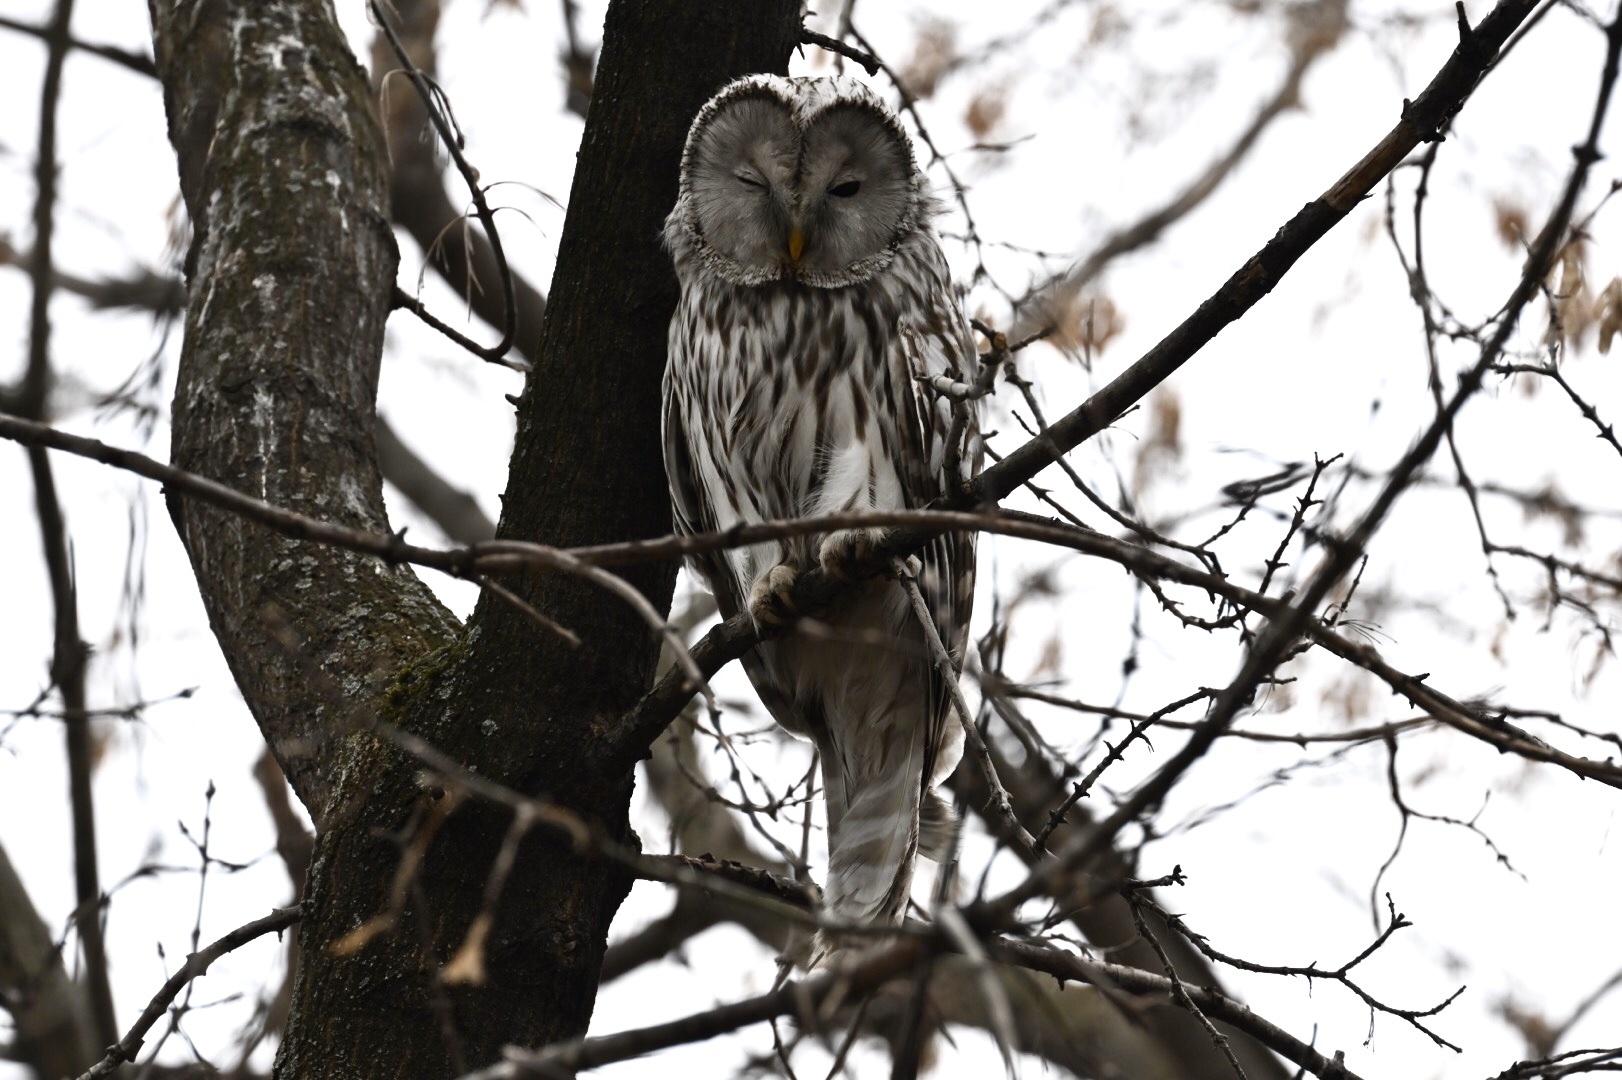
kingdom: Animalia
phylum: Chordata
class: Aves
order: Strigiformes
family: Strigidae
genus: Strix
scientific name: Strix uralensis
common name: Ural owl
